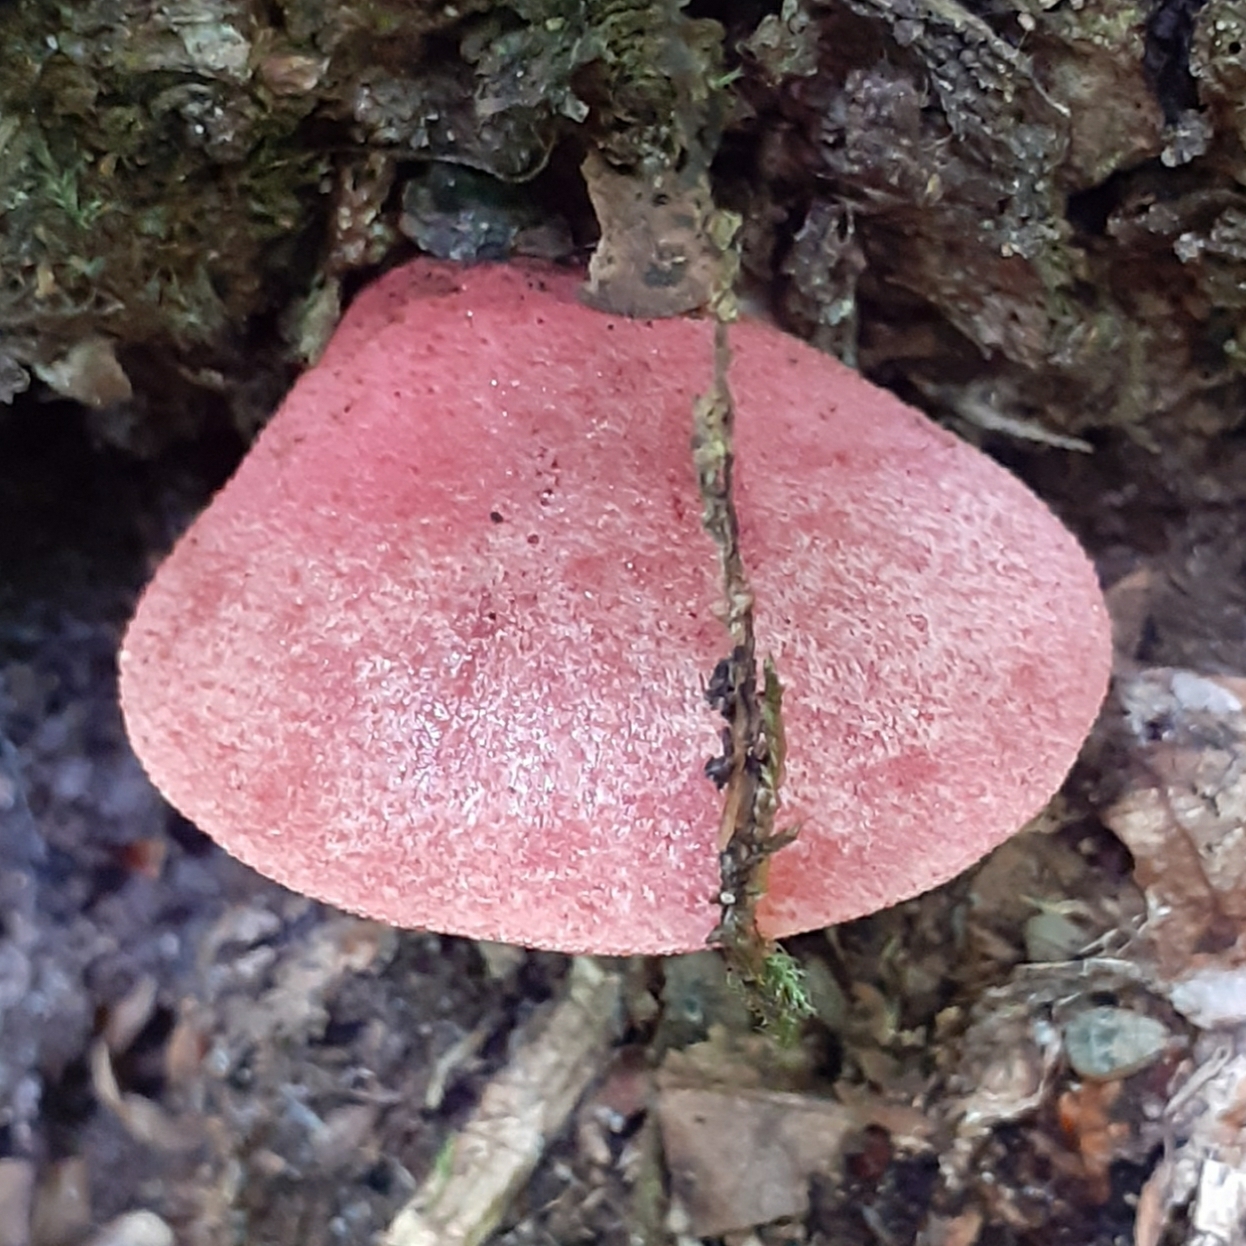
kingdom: Fungi
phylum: Basidiomycota
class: Agaricomycetes
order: Agaricales
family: Fistulinaceae
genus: Fistulina
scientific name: Fistulina hepatica
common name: Beef-steak fungus
